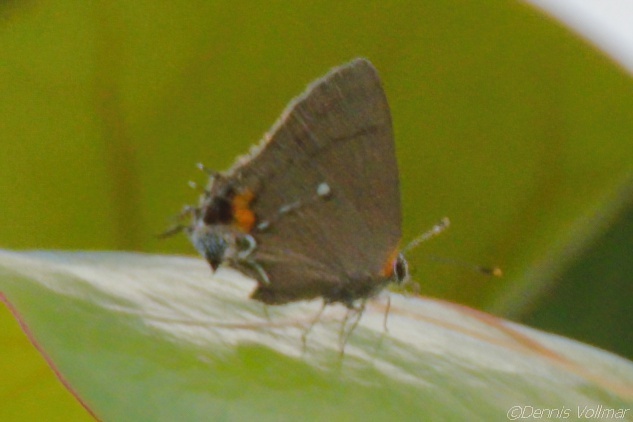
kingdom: Animalia
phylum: Arthropoda
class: Insecta
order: Lepidoptera
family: Lycaenidae
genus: Thecla
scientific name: Thecla angelia
